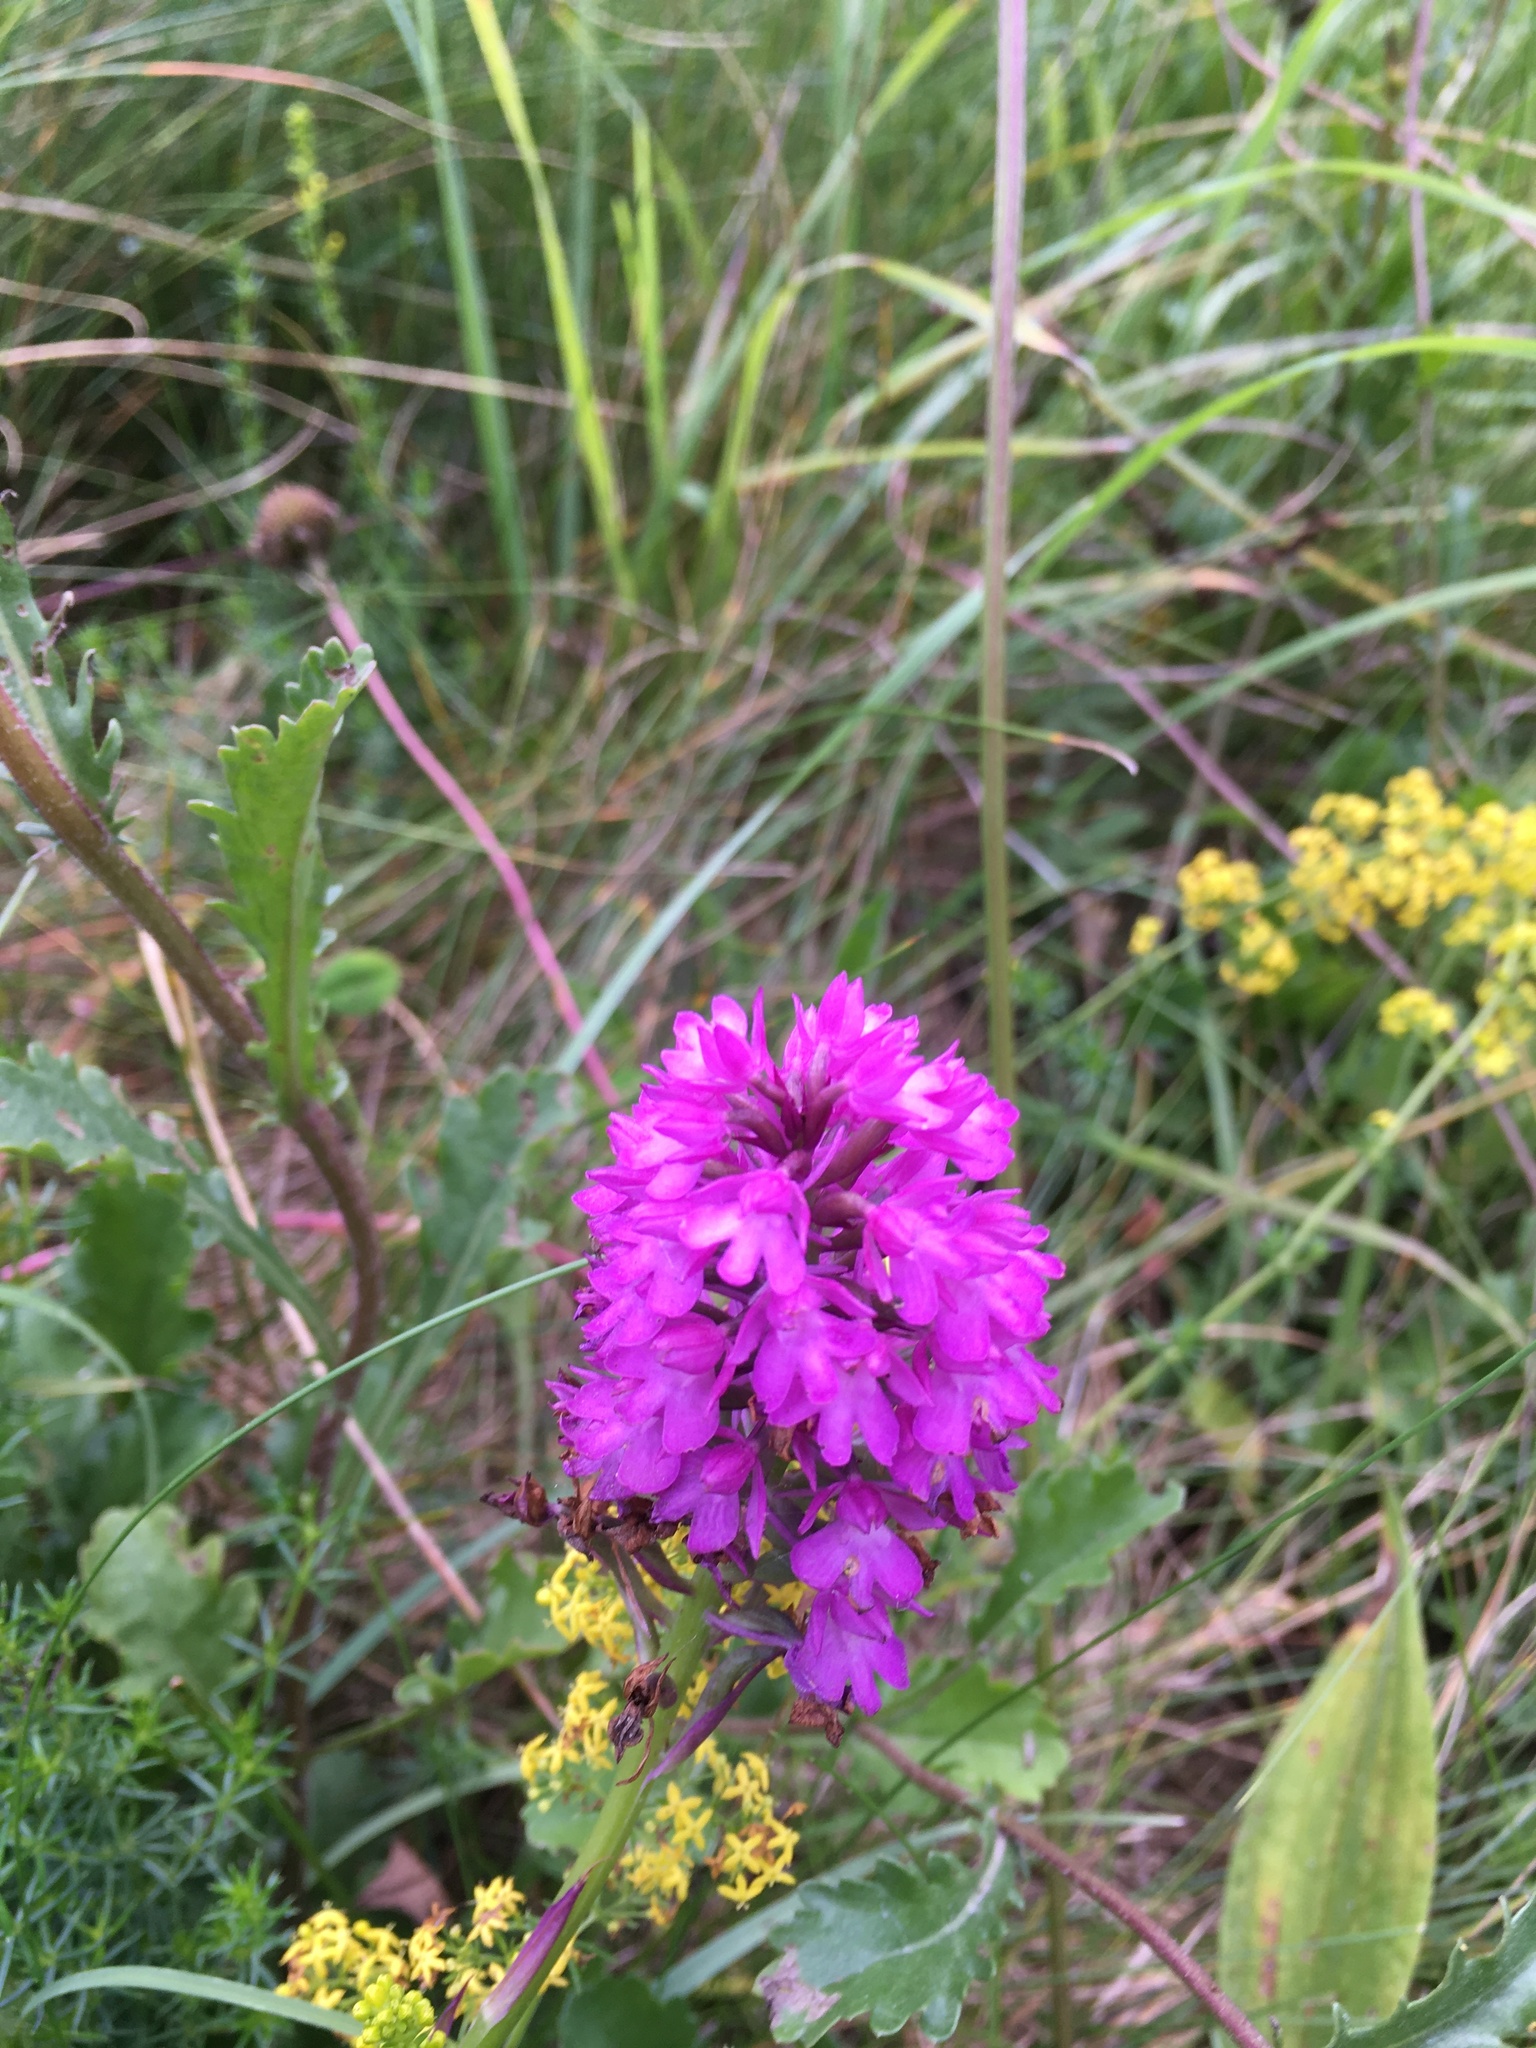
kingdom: Plantae
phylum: Tracheophyta
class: Liliopsida
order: Asparagales
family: Orchidaceae
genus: Anacamptis
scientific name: Anacamptis pyramidalis
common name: Pyramidal orchid
